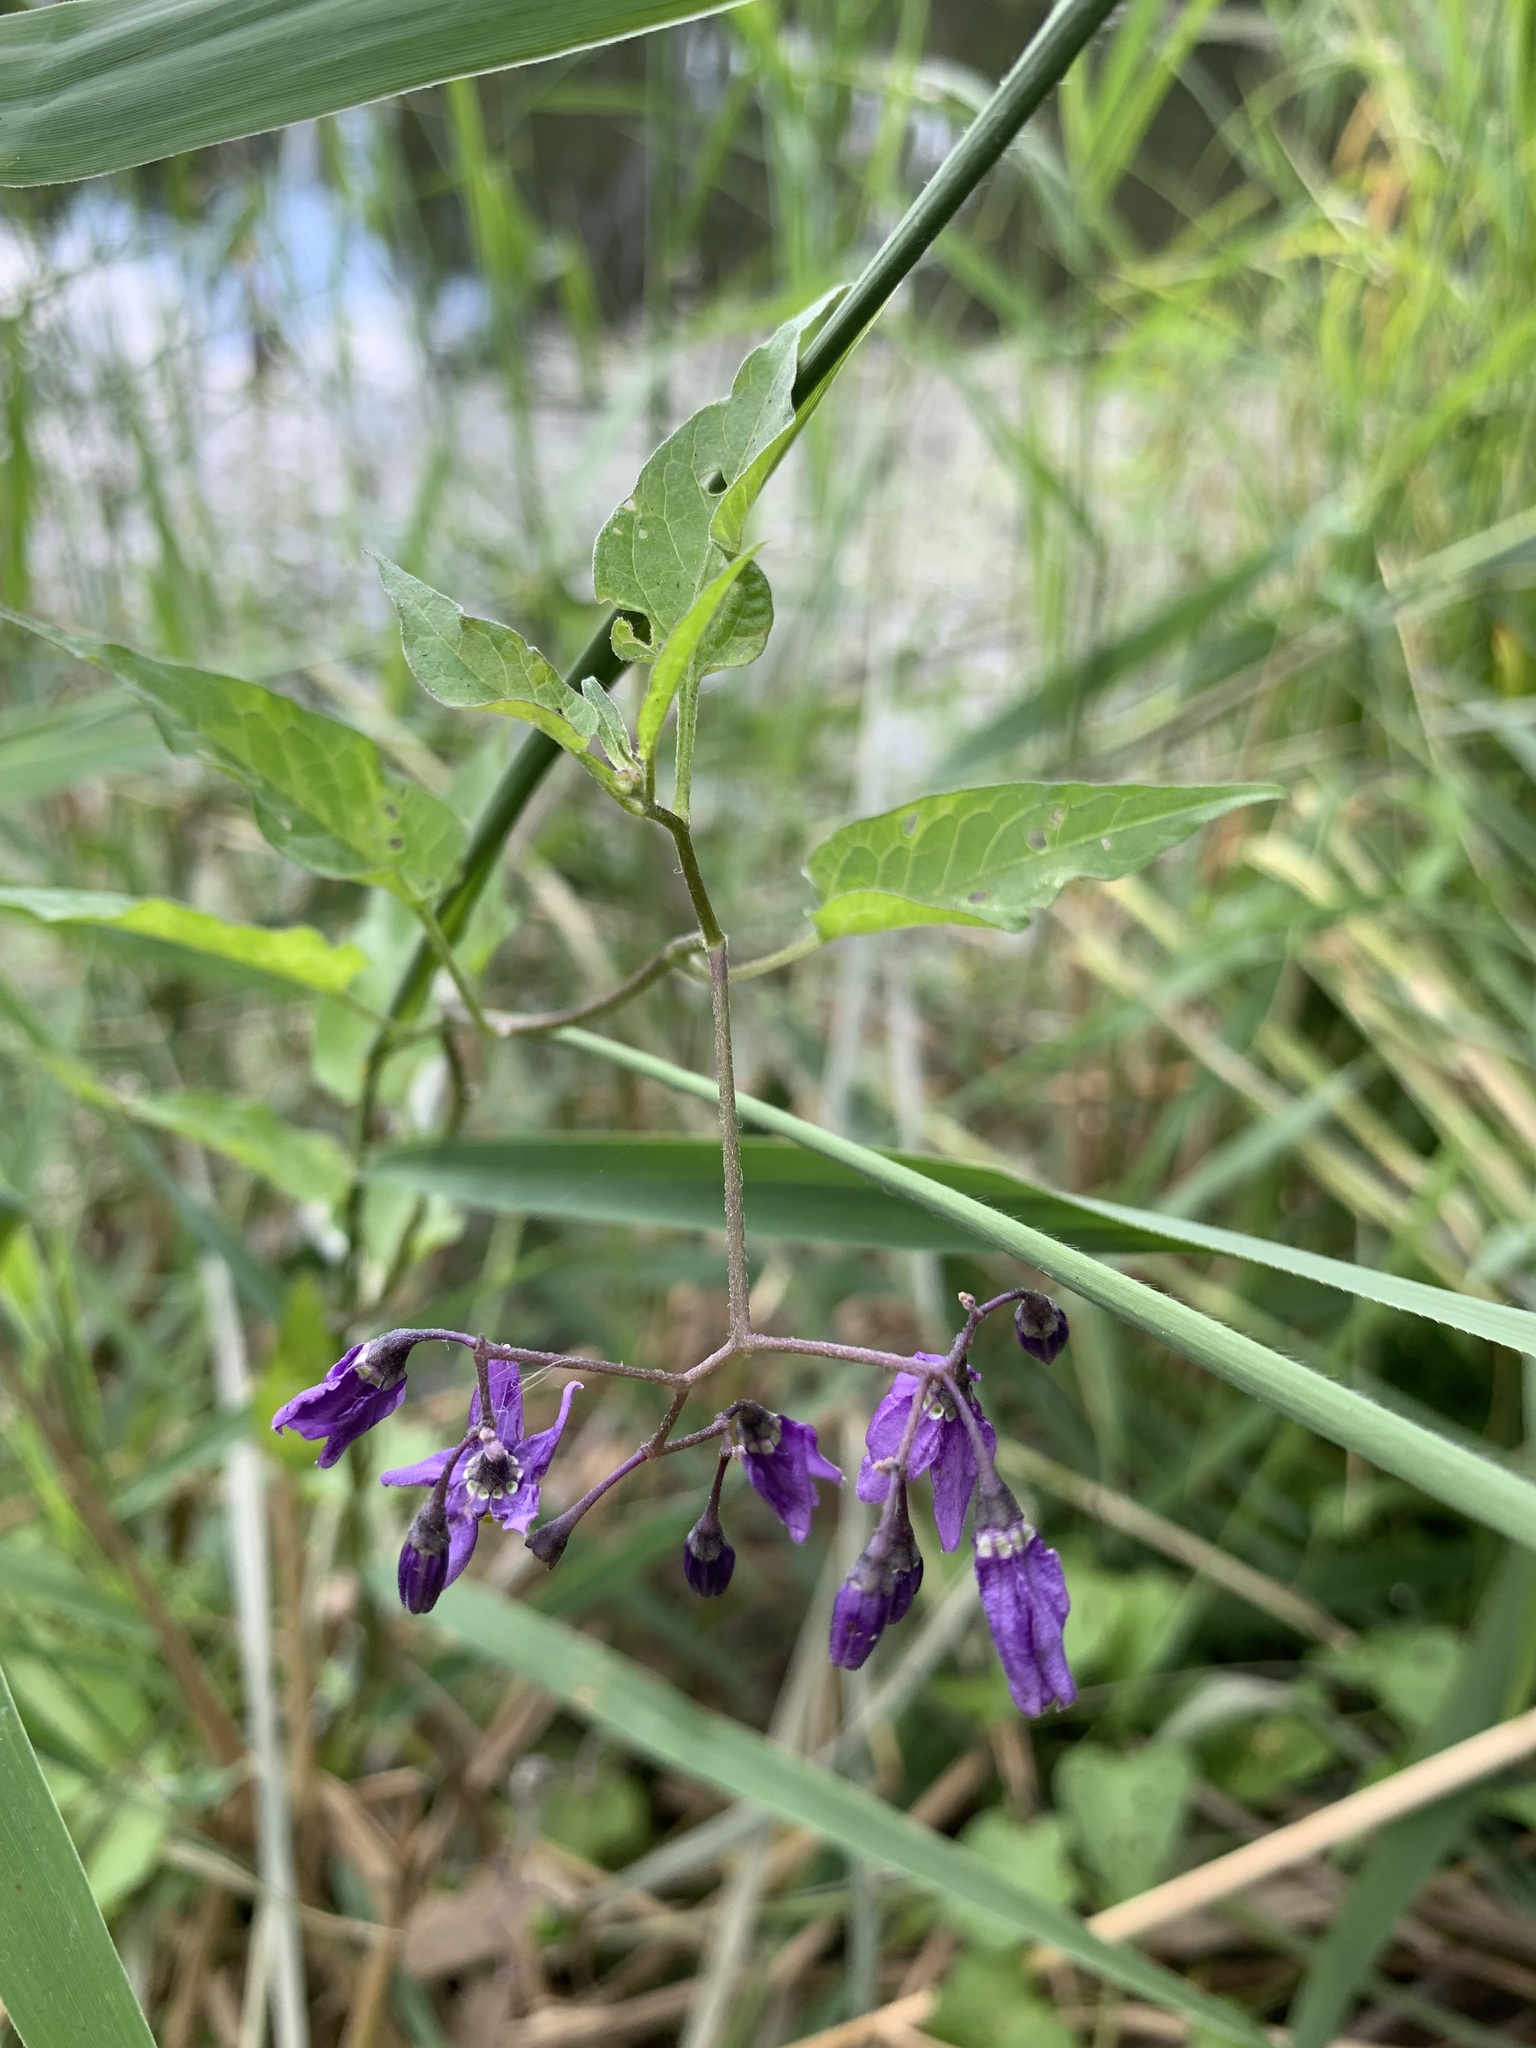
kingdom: Plantae
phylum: Tracheophyta
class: Magnoliopsida
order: Solanales
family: Solanaceae
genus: Solanum
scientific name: Solanum dulcamara
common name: Climbing nightshade
